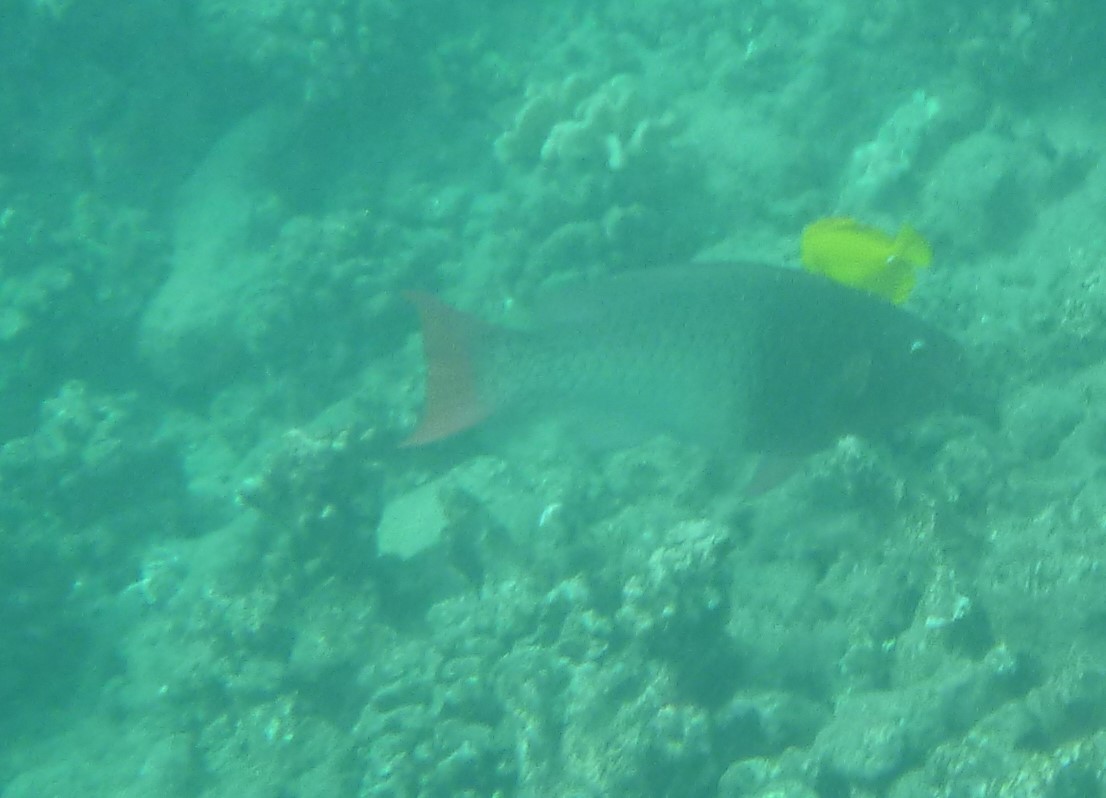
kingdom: Animalia
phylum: Chordata
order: Perciformes
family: Scaridae
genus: Scarus
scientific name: Scarus rubroviolaceus
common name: Ember parrotfish
